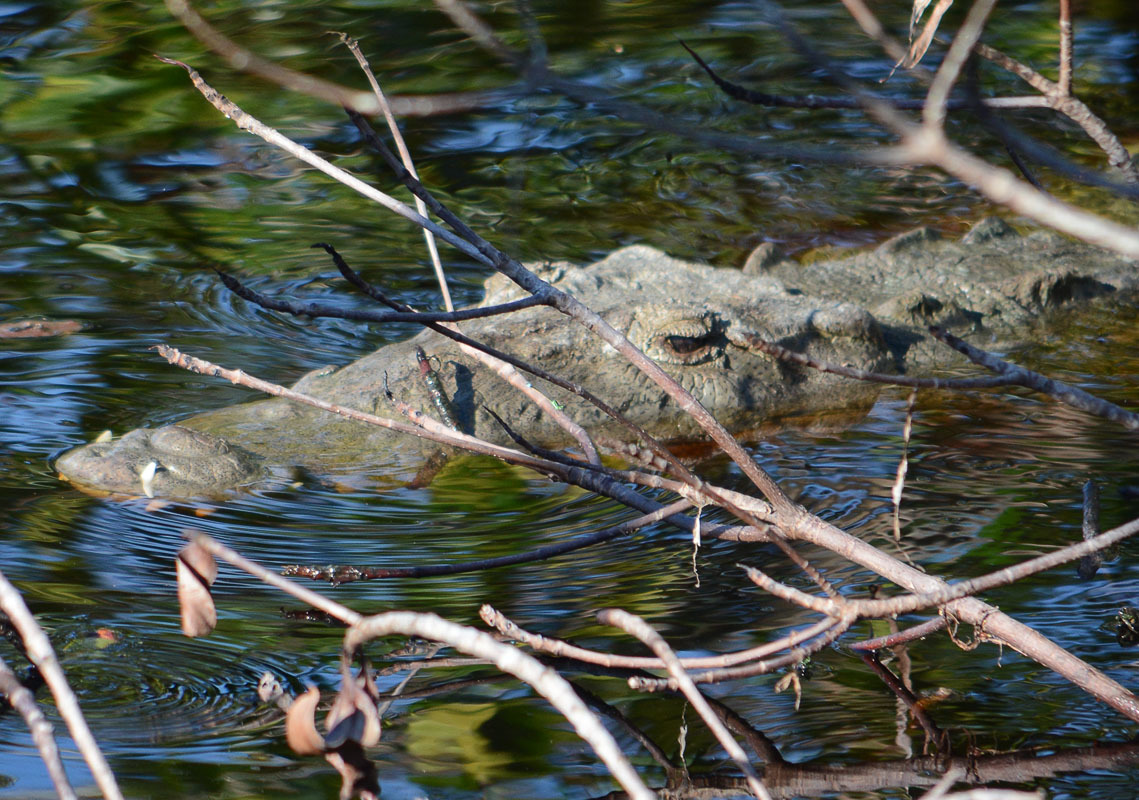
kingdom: Animalia
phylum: Chordata
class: Crocodylia
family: Crocodylidae
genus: Crocodylus
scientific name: Crocodylus acutus
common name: American crocodile
